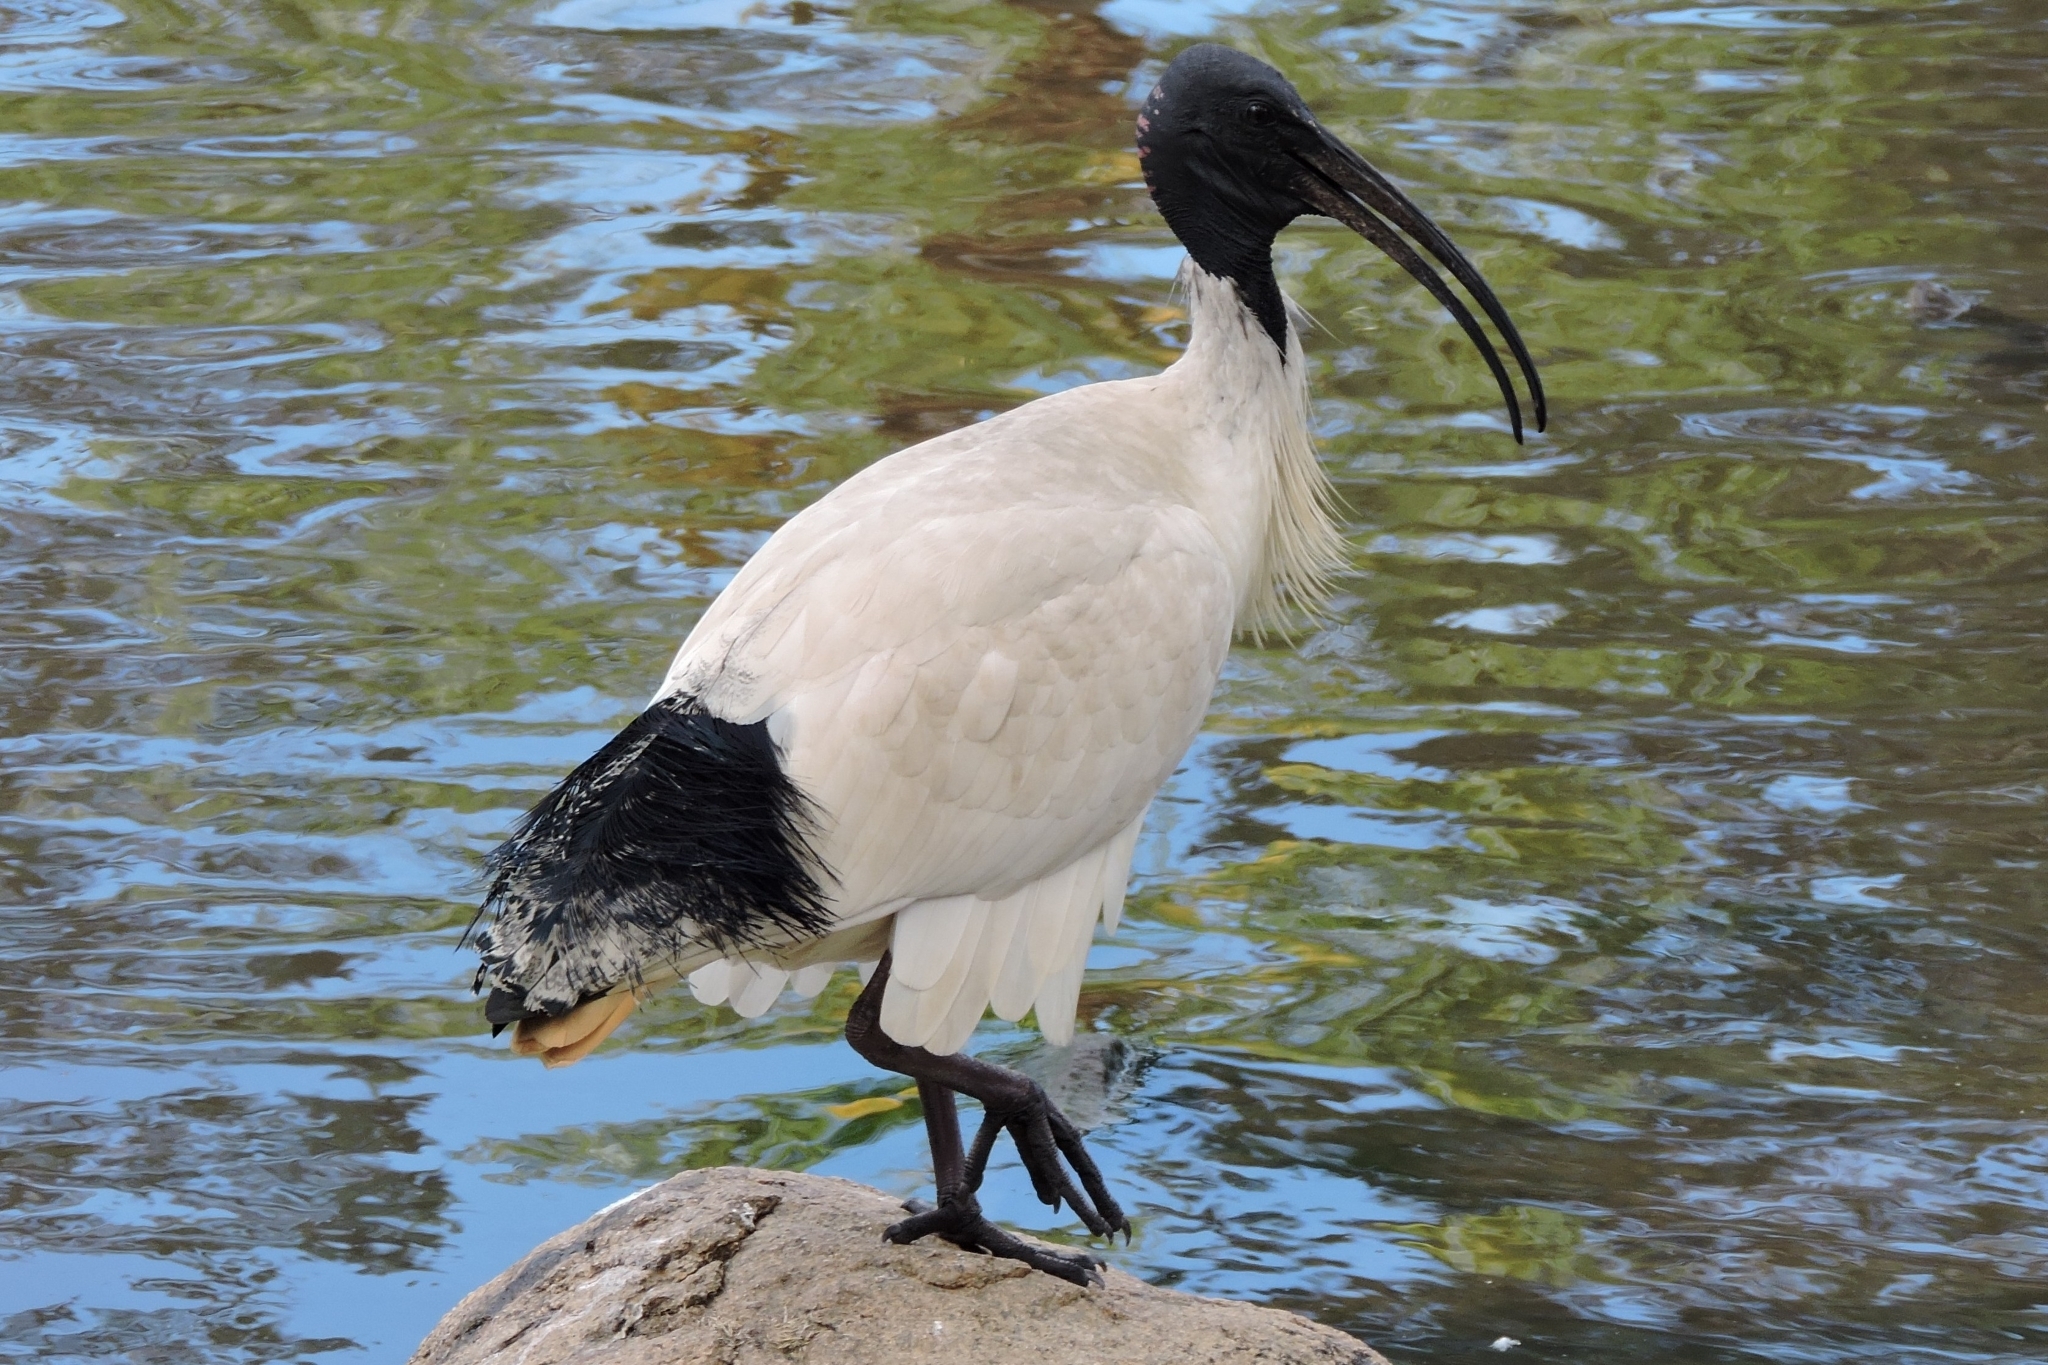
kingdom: Animalia
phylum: Chordata
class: Aves
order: Pelecaniformes
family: Threskiornithidae
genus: Threskiornis
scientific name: Threskiornis molucca
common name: Australian white ibis
